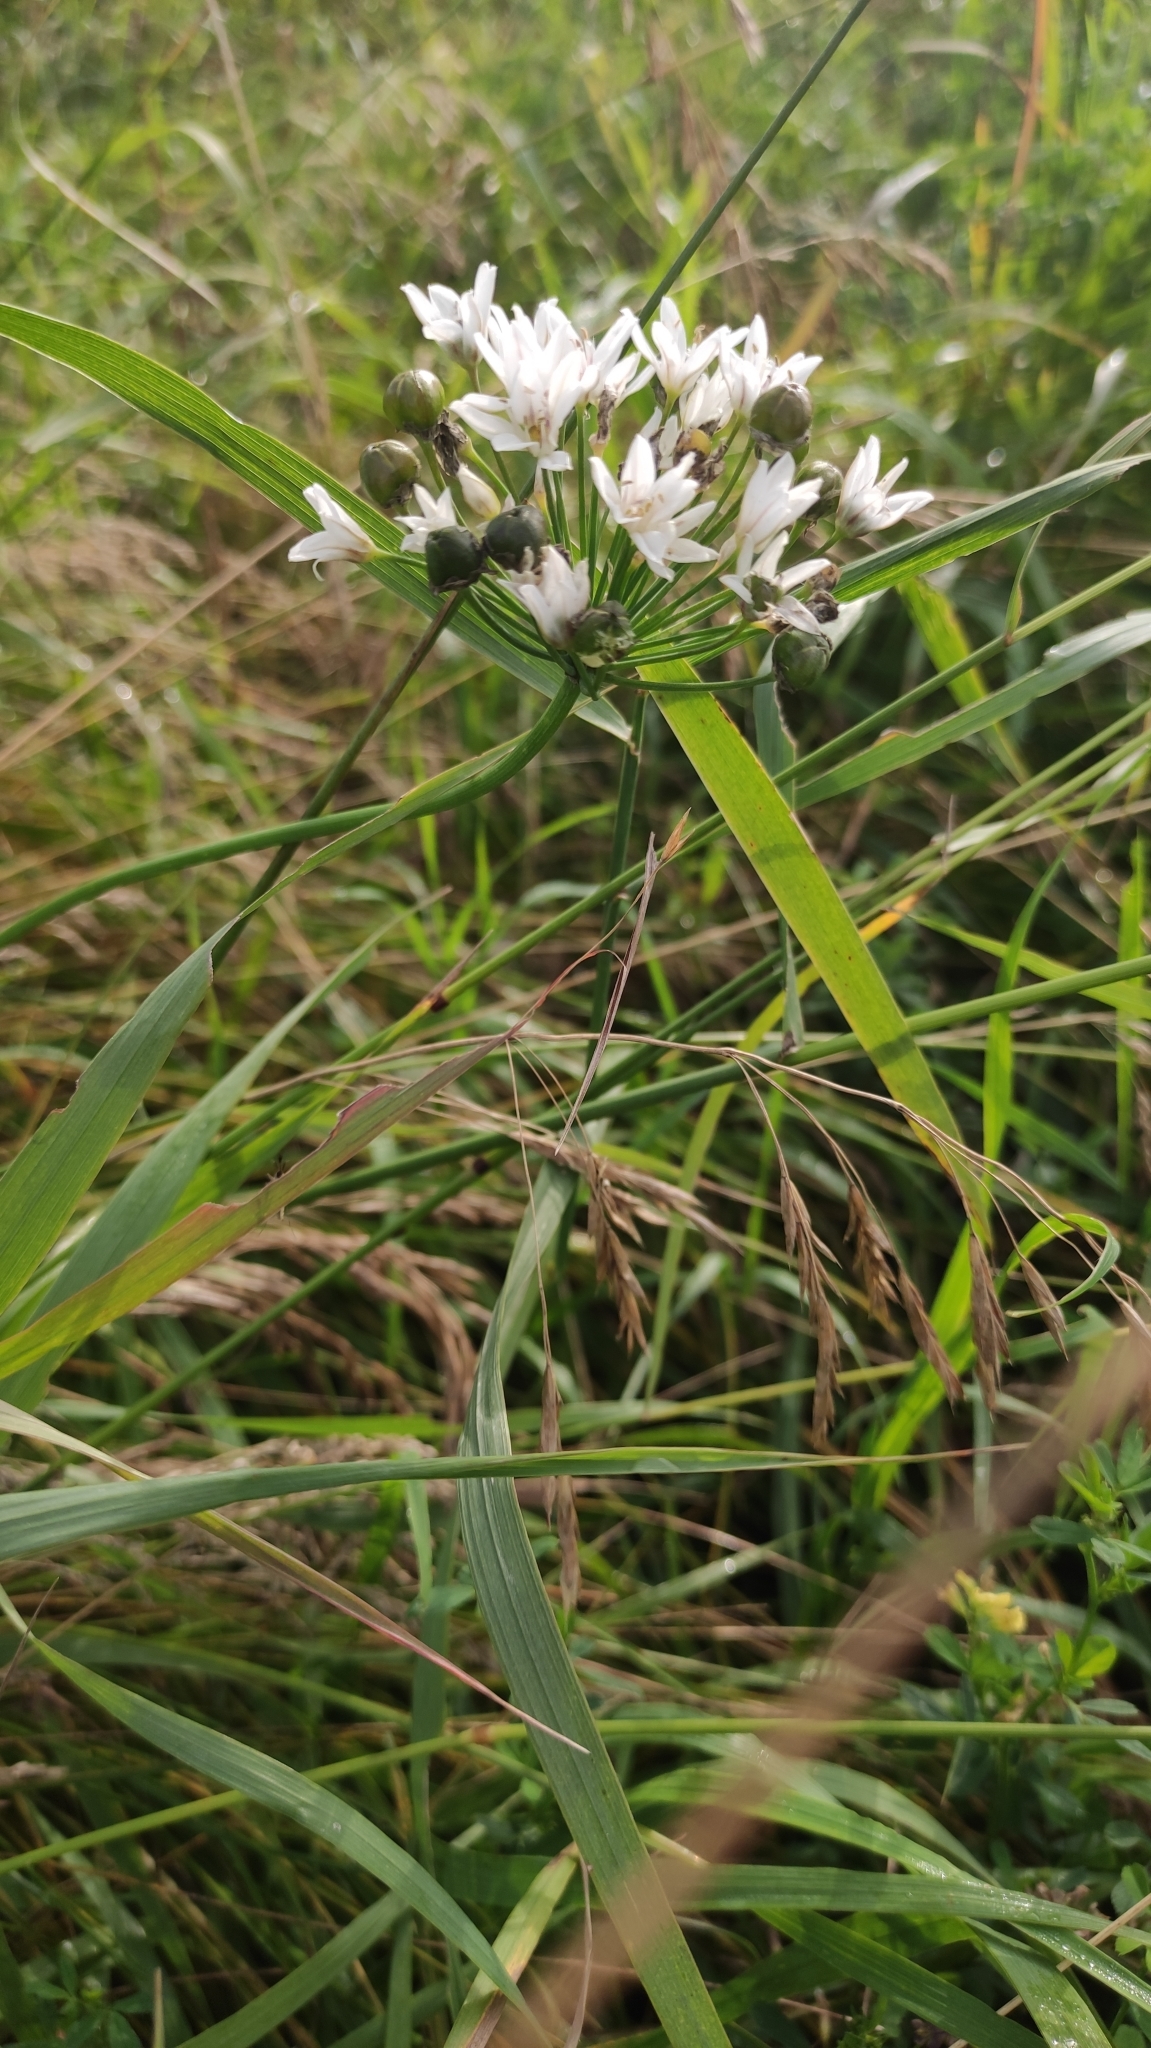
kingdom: Plantae
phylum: Tracheophyta
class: Liliopsida
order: Asparagales
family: Amaryllidaceae
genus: Allium
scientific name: Allium ramosum
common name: Fragrant garlic
